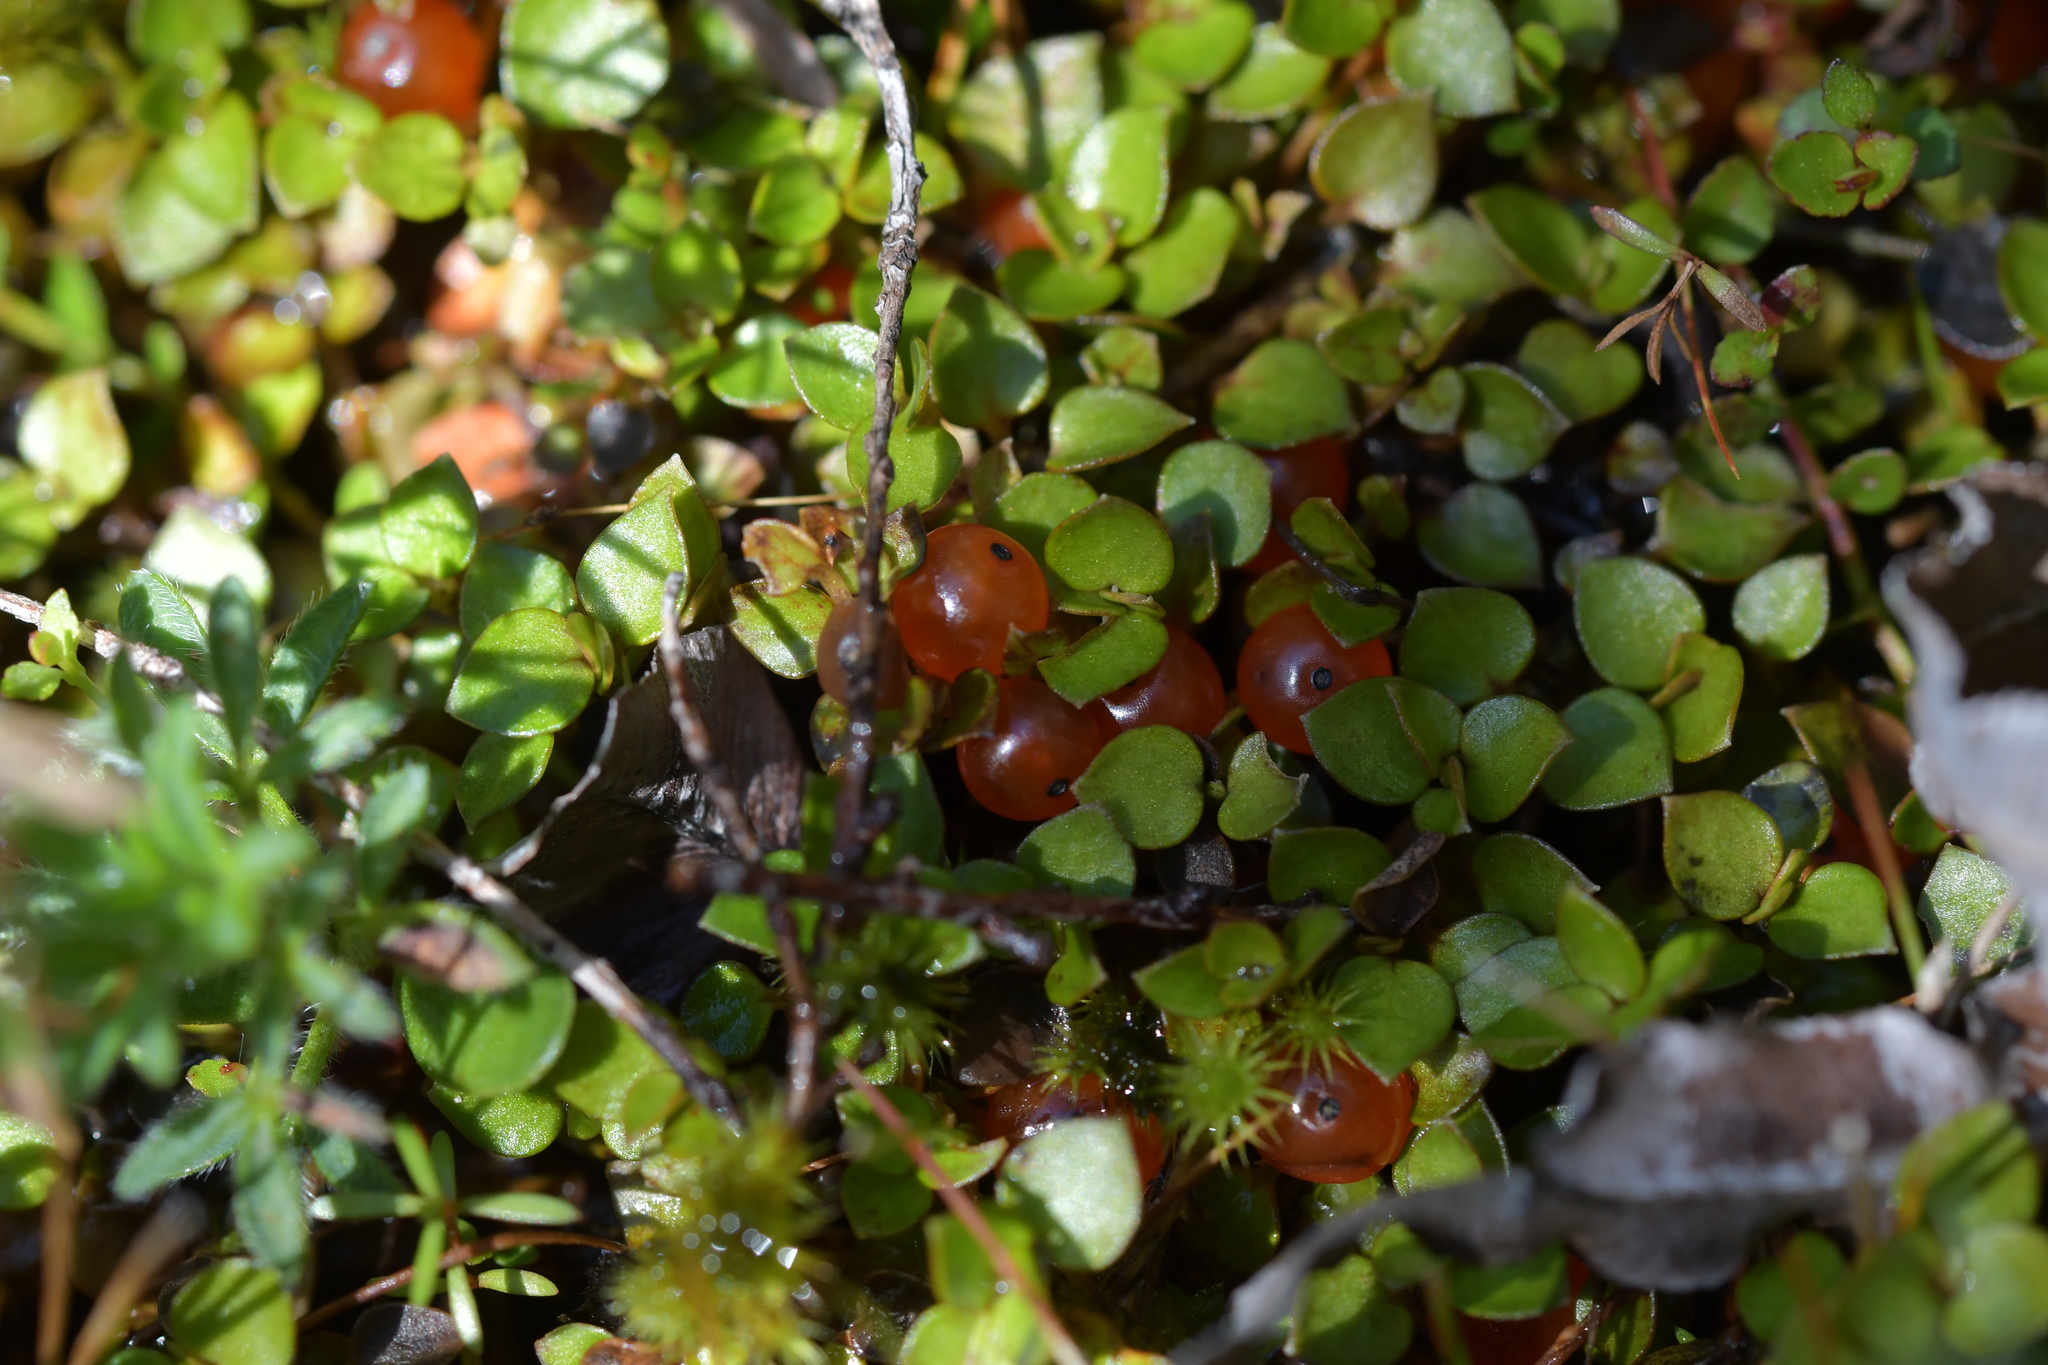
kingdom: Plantae
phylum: Tracheophyta
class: Magnoliopsida
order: Gentianales
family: Rubiaceae
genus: Nertera
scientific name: Nertera granadensis
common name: Beadplant
